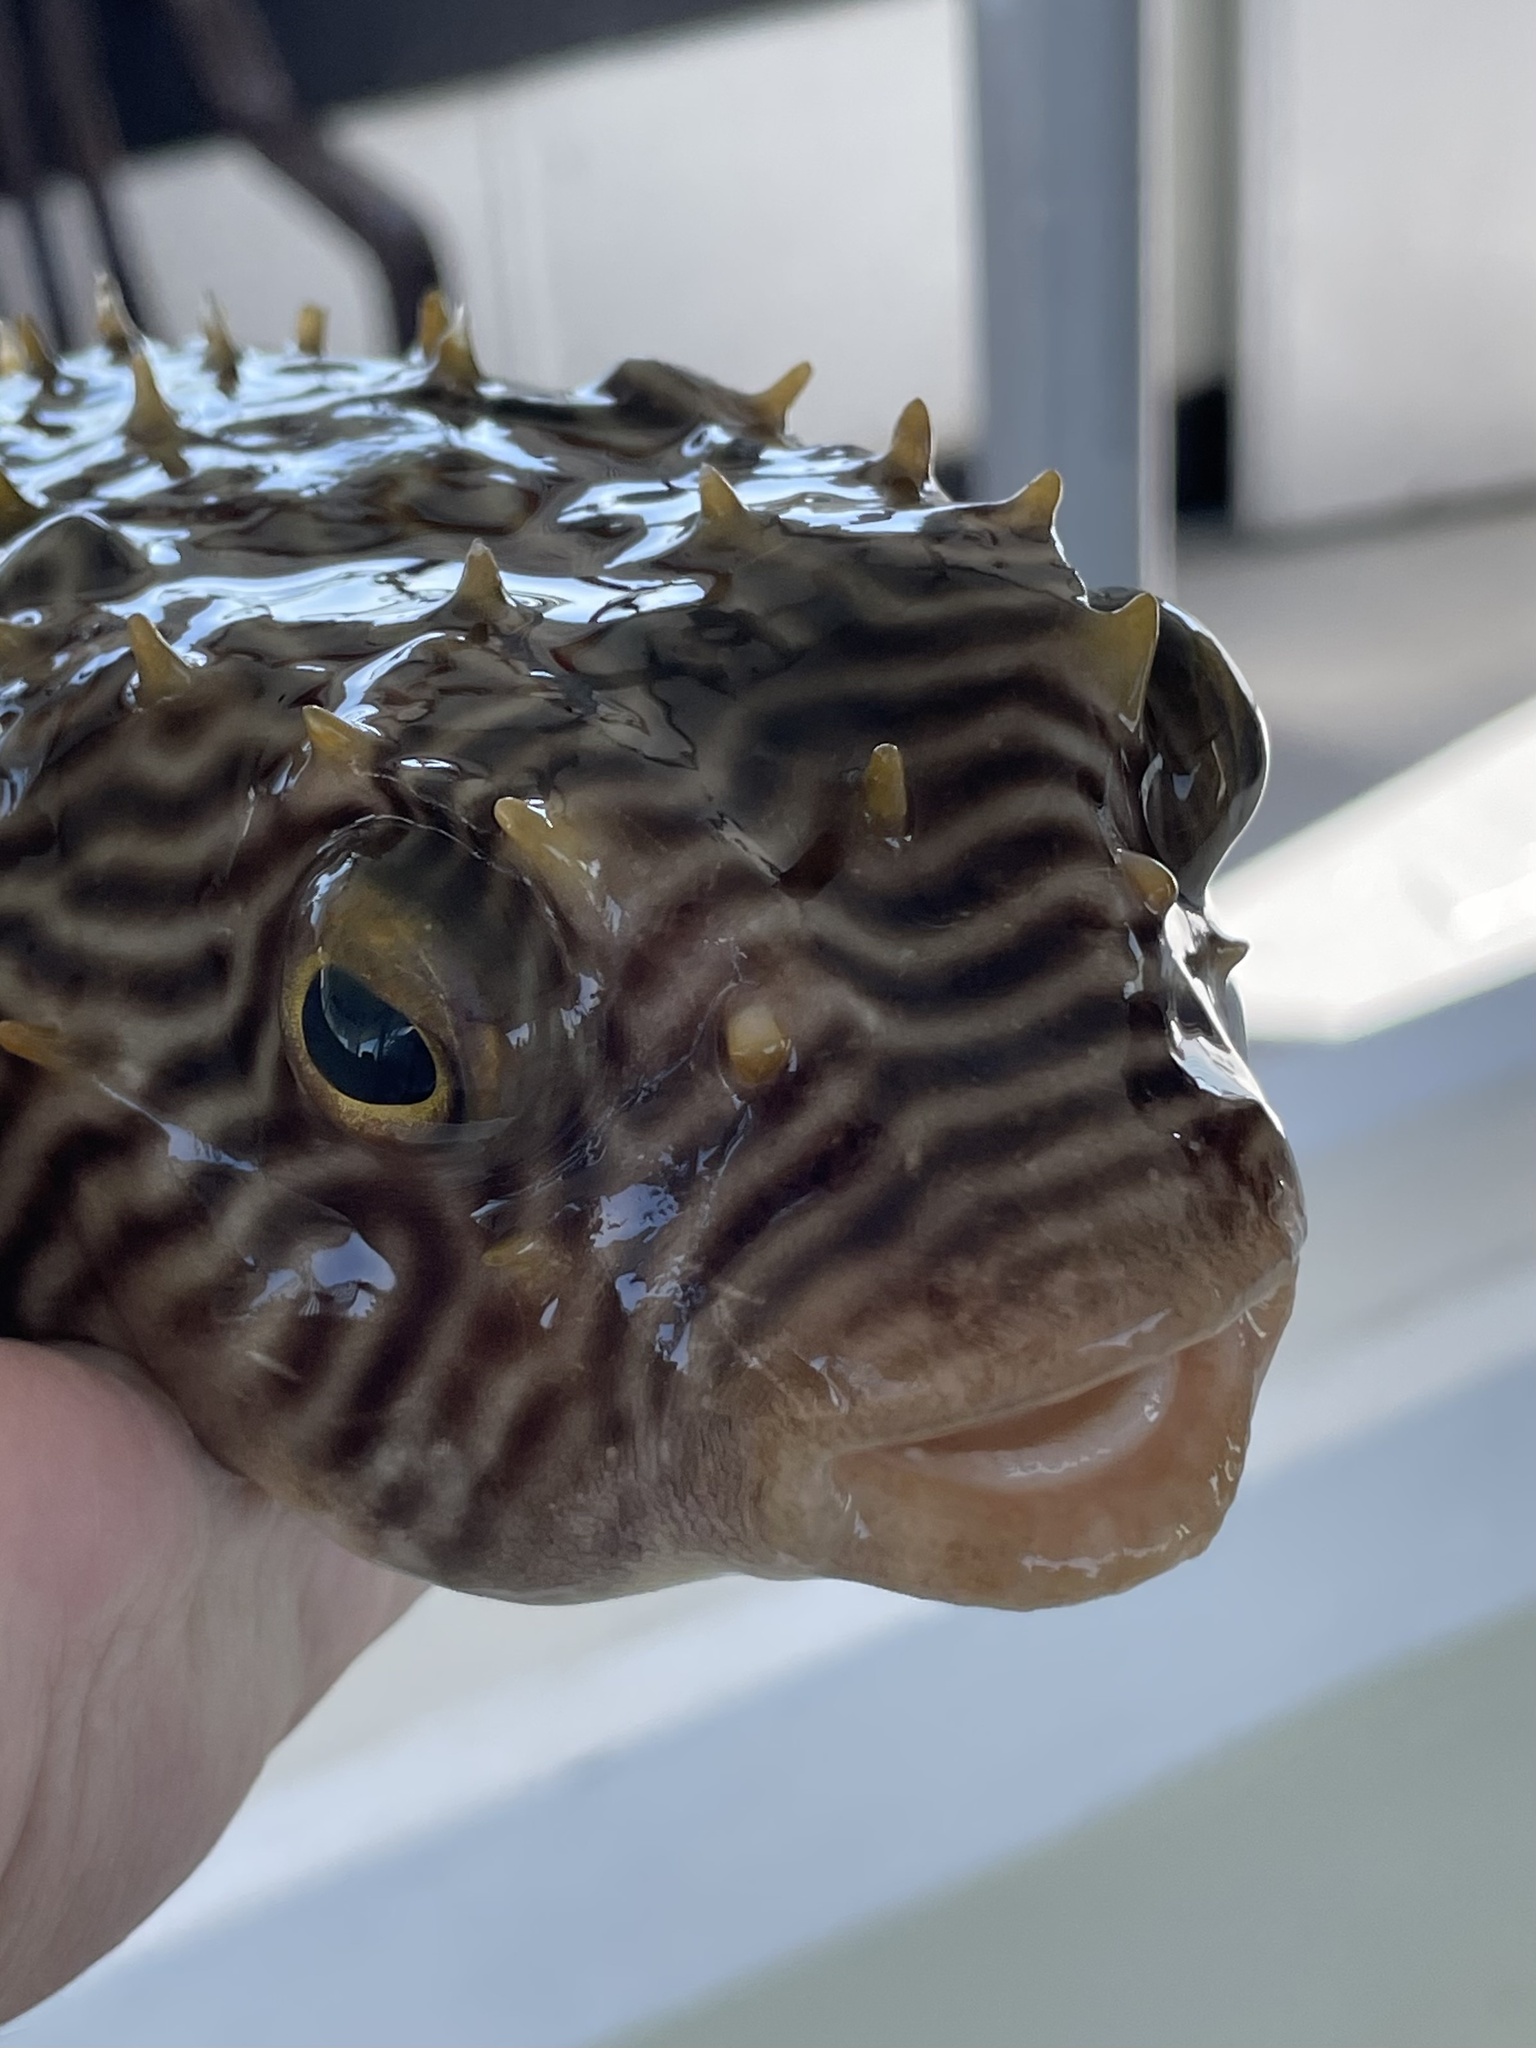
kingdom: Animalia
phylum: Chordata
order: Tetraodontiformes
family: Diodontidae
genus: Chilomycterus
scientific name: Chilomycterus schoepfii
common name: Striped burrfish
